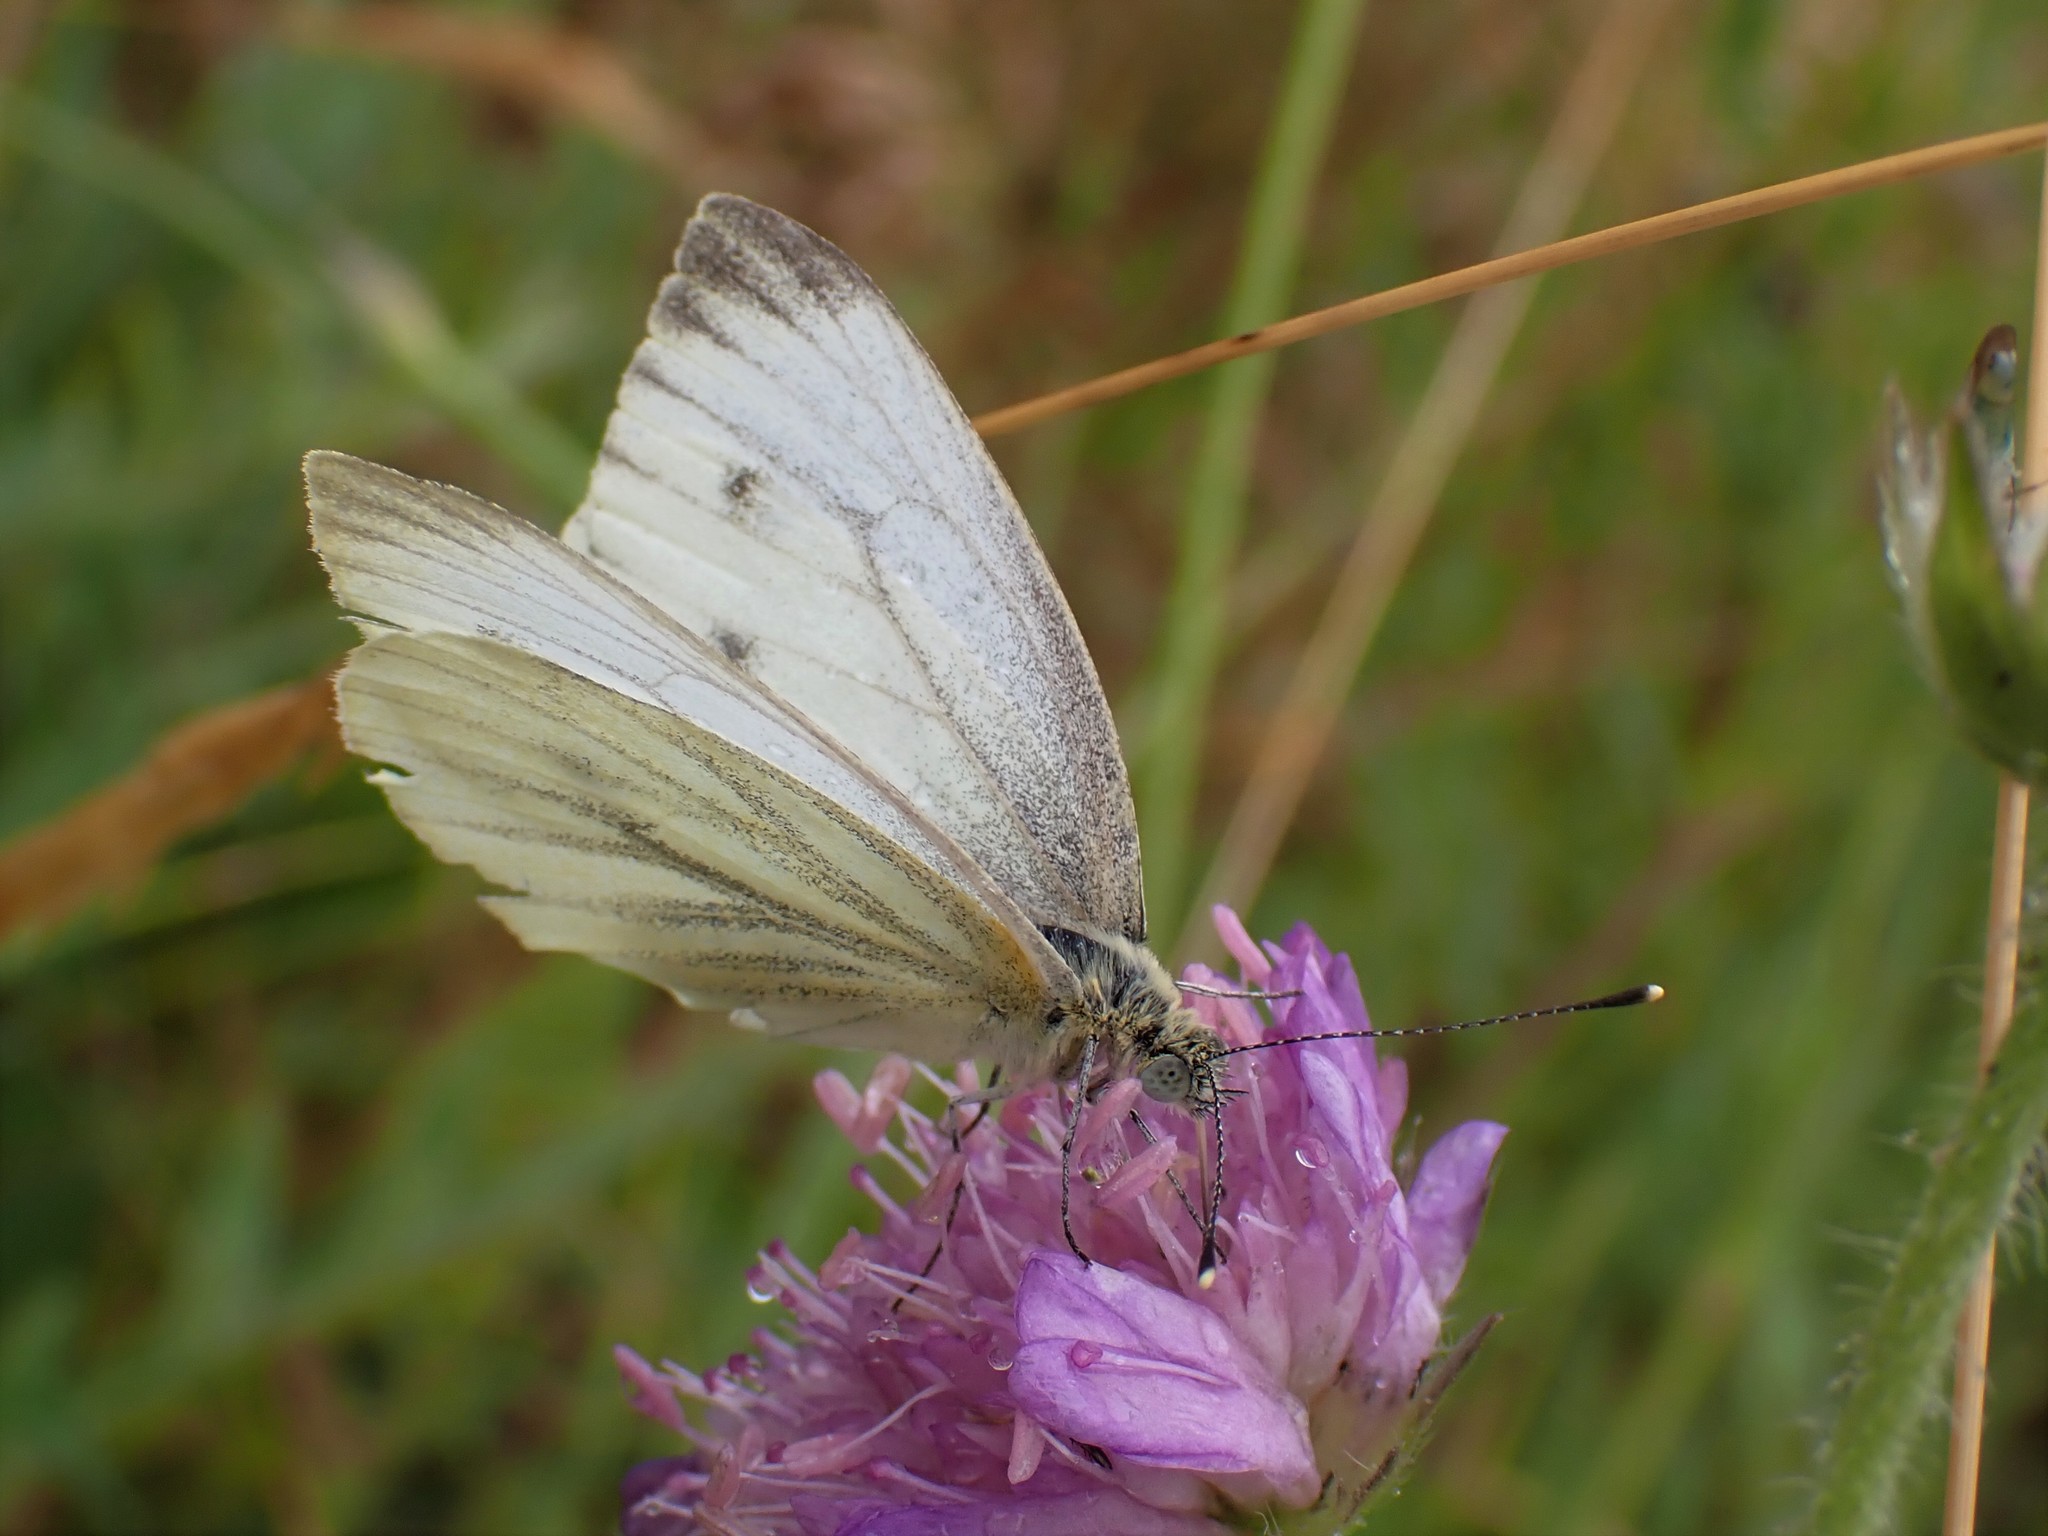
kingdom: Animalia
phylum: Arthropoda
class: Insecta
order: Lepidoptera
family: Pieridae
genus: Pieris
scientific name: Pieris napi
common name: Green-veined white
